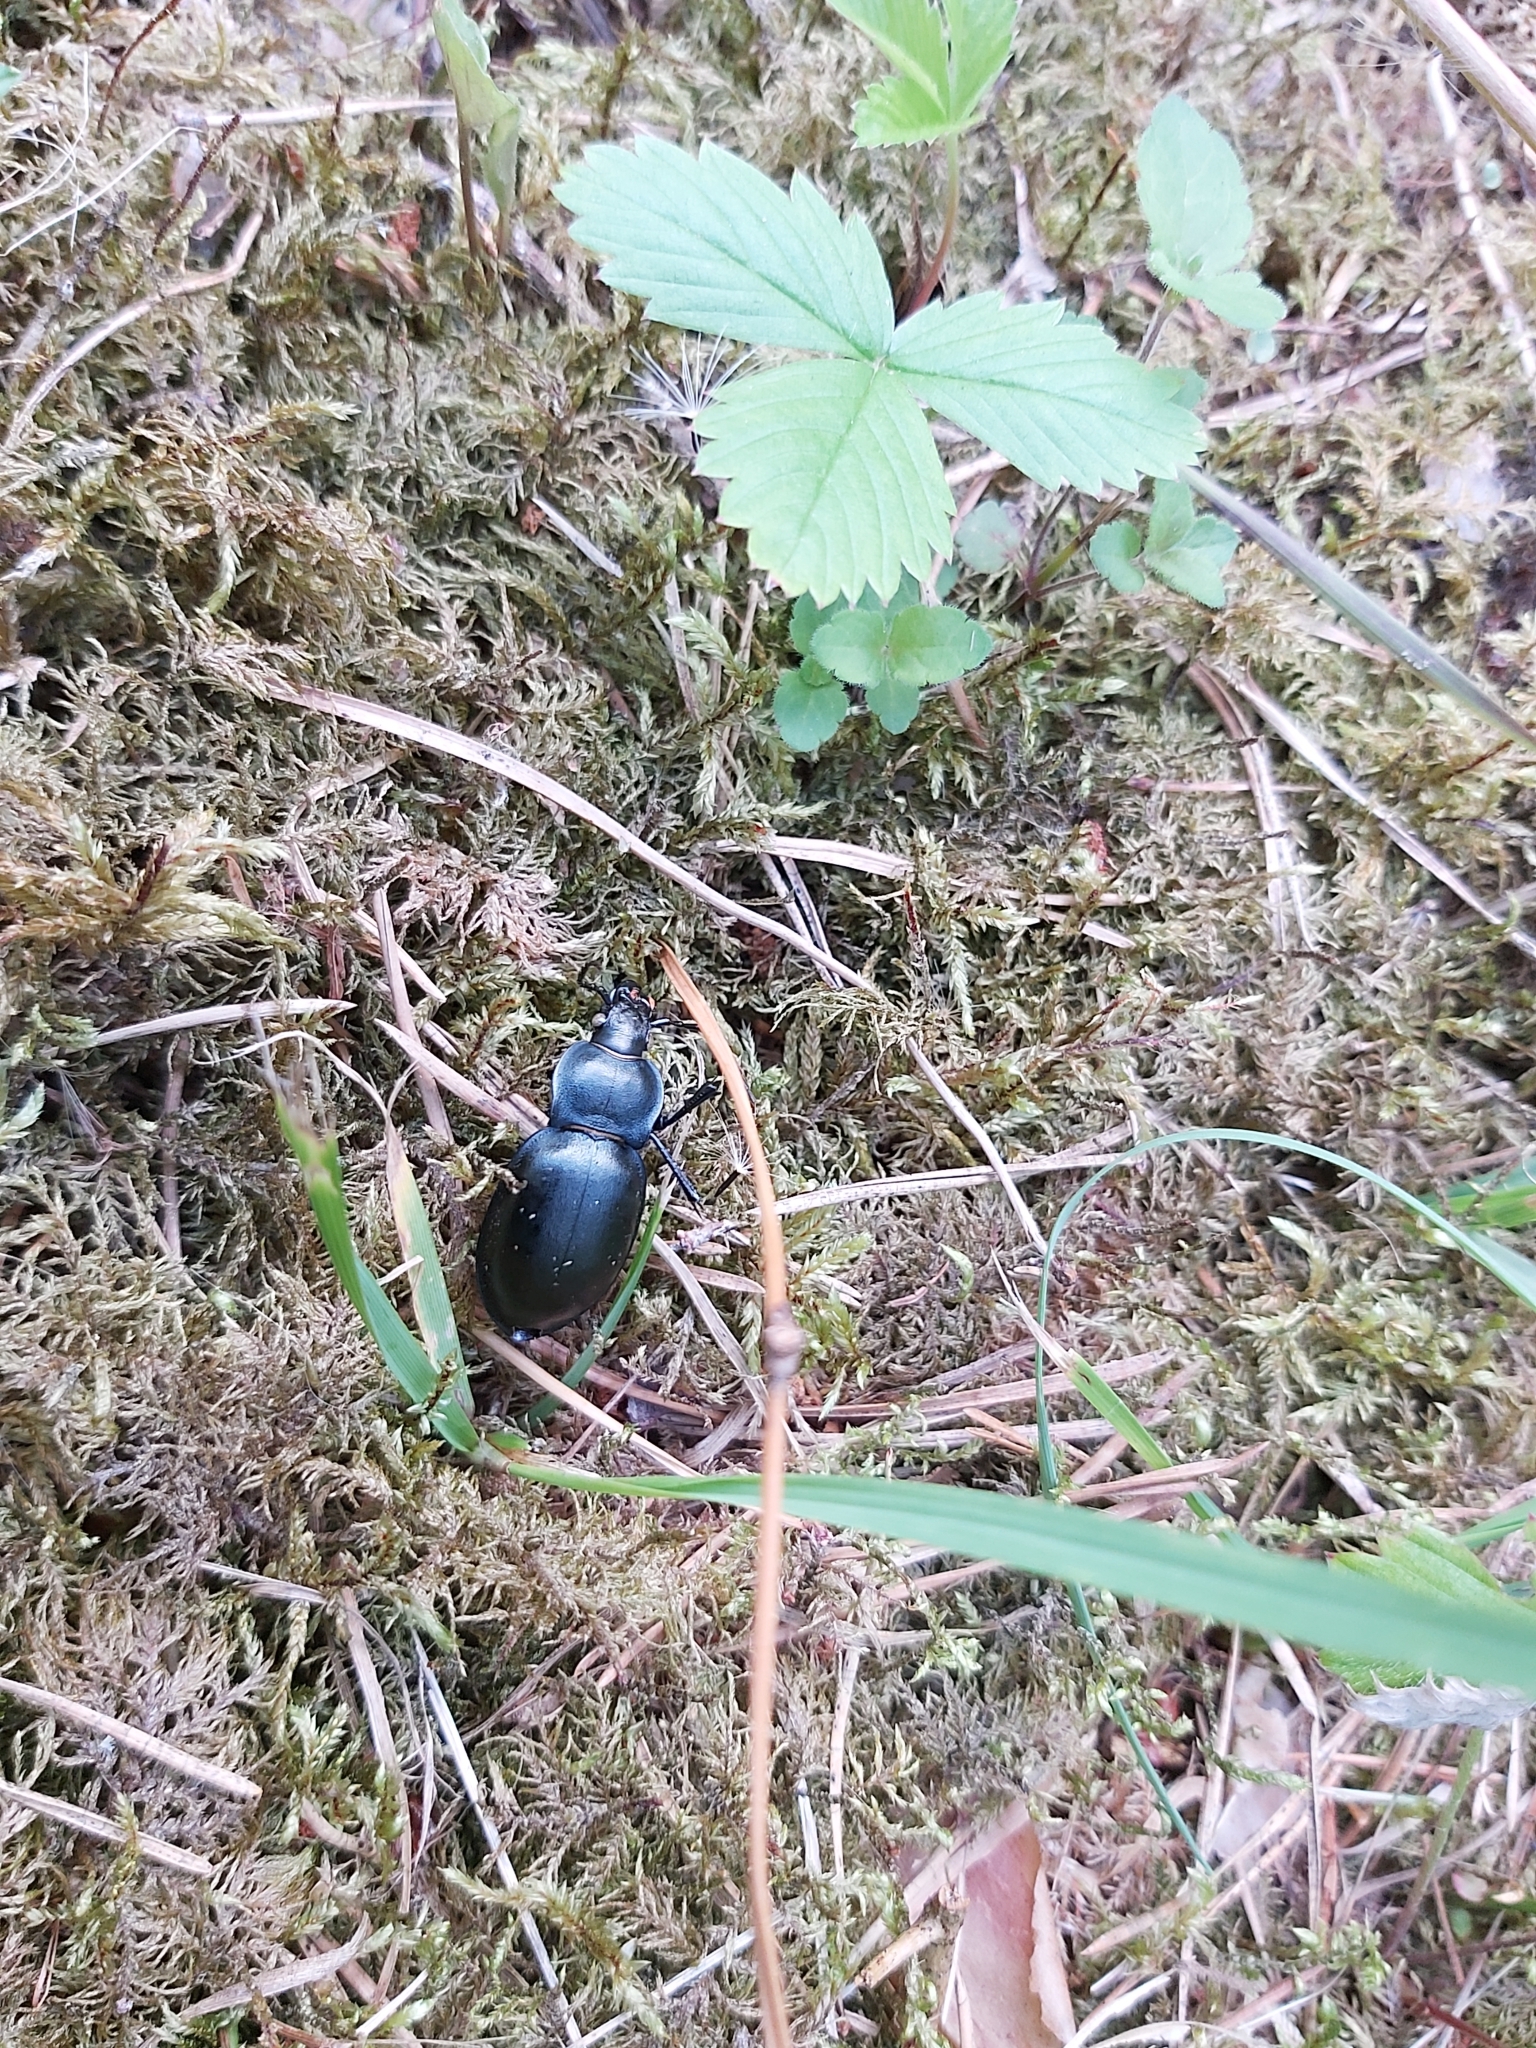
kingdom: Animalia
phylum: Arthropoda
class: Insecta
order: Coleoptera
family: Carabidae
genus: Carabus
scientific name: Carabus glabratus
